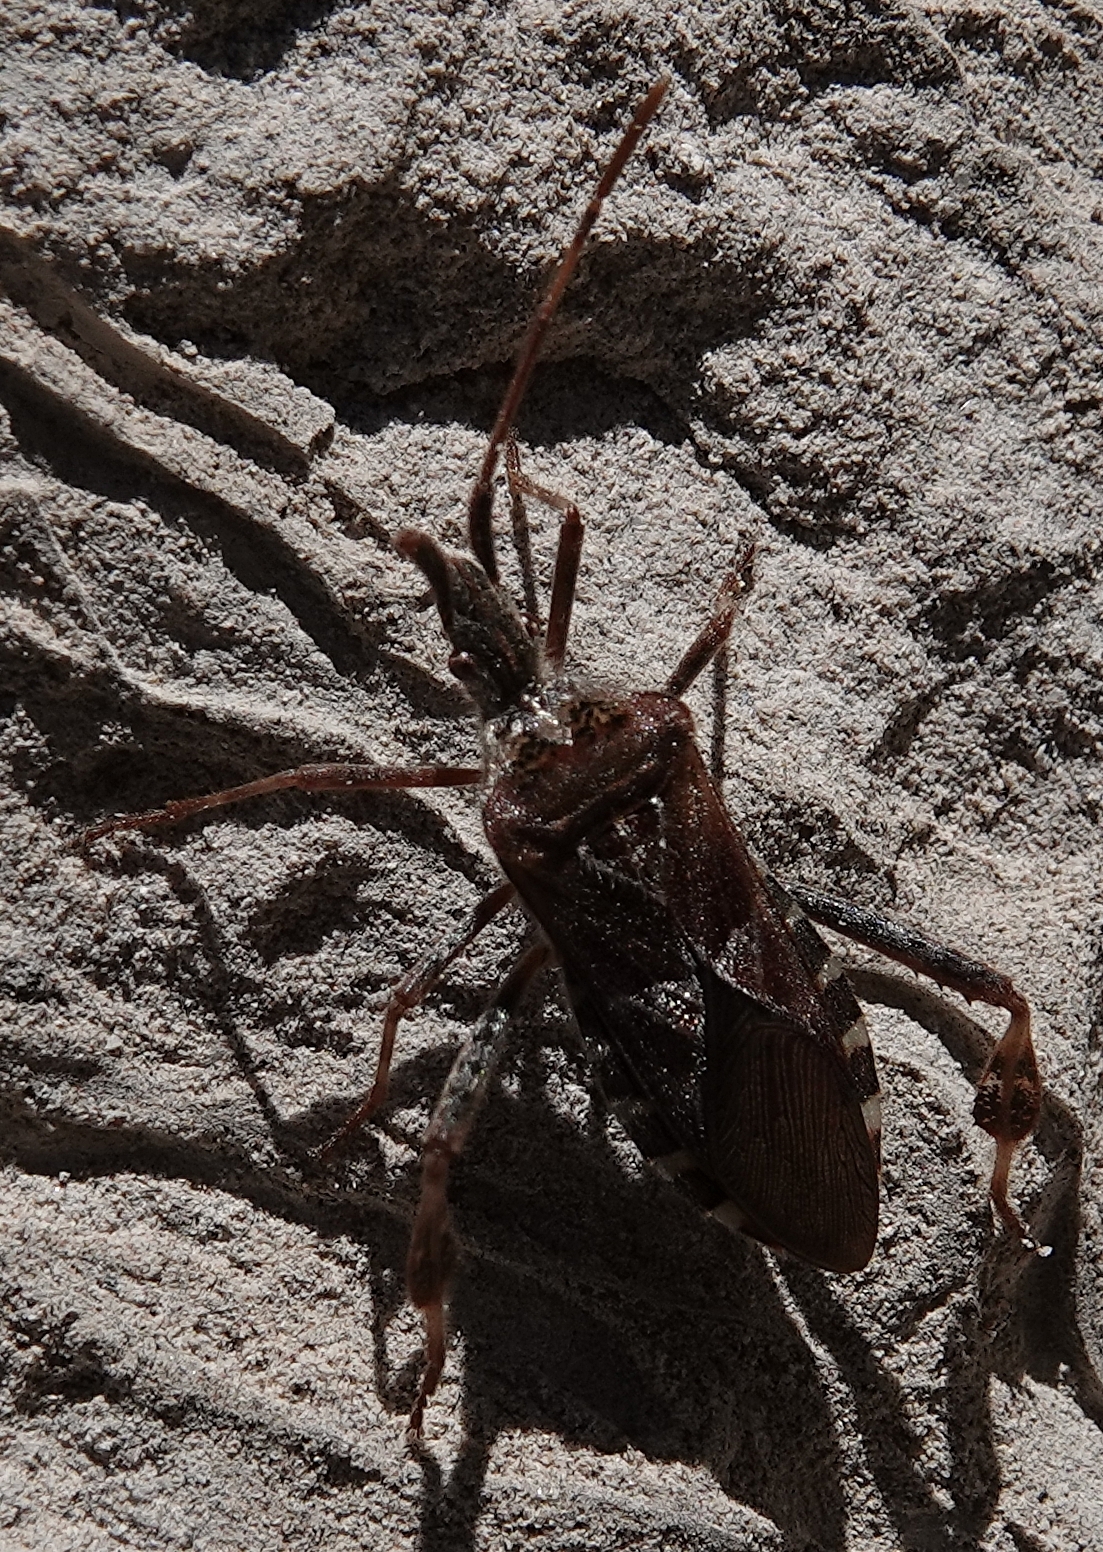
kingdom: Animalia
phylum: Arthropoda
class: Insecta
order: Hemiptera
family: Coreidae
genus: Leptoglossus
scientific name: Leptoglossus occidentalis
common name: Western conifer-seed bug
